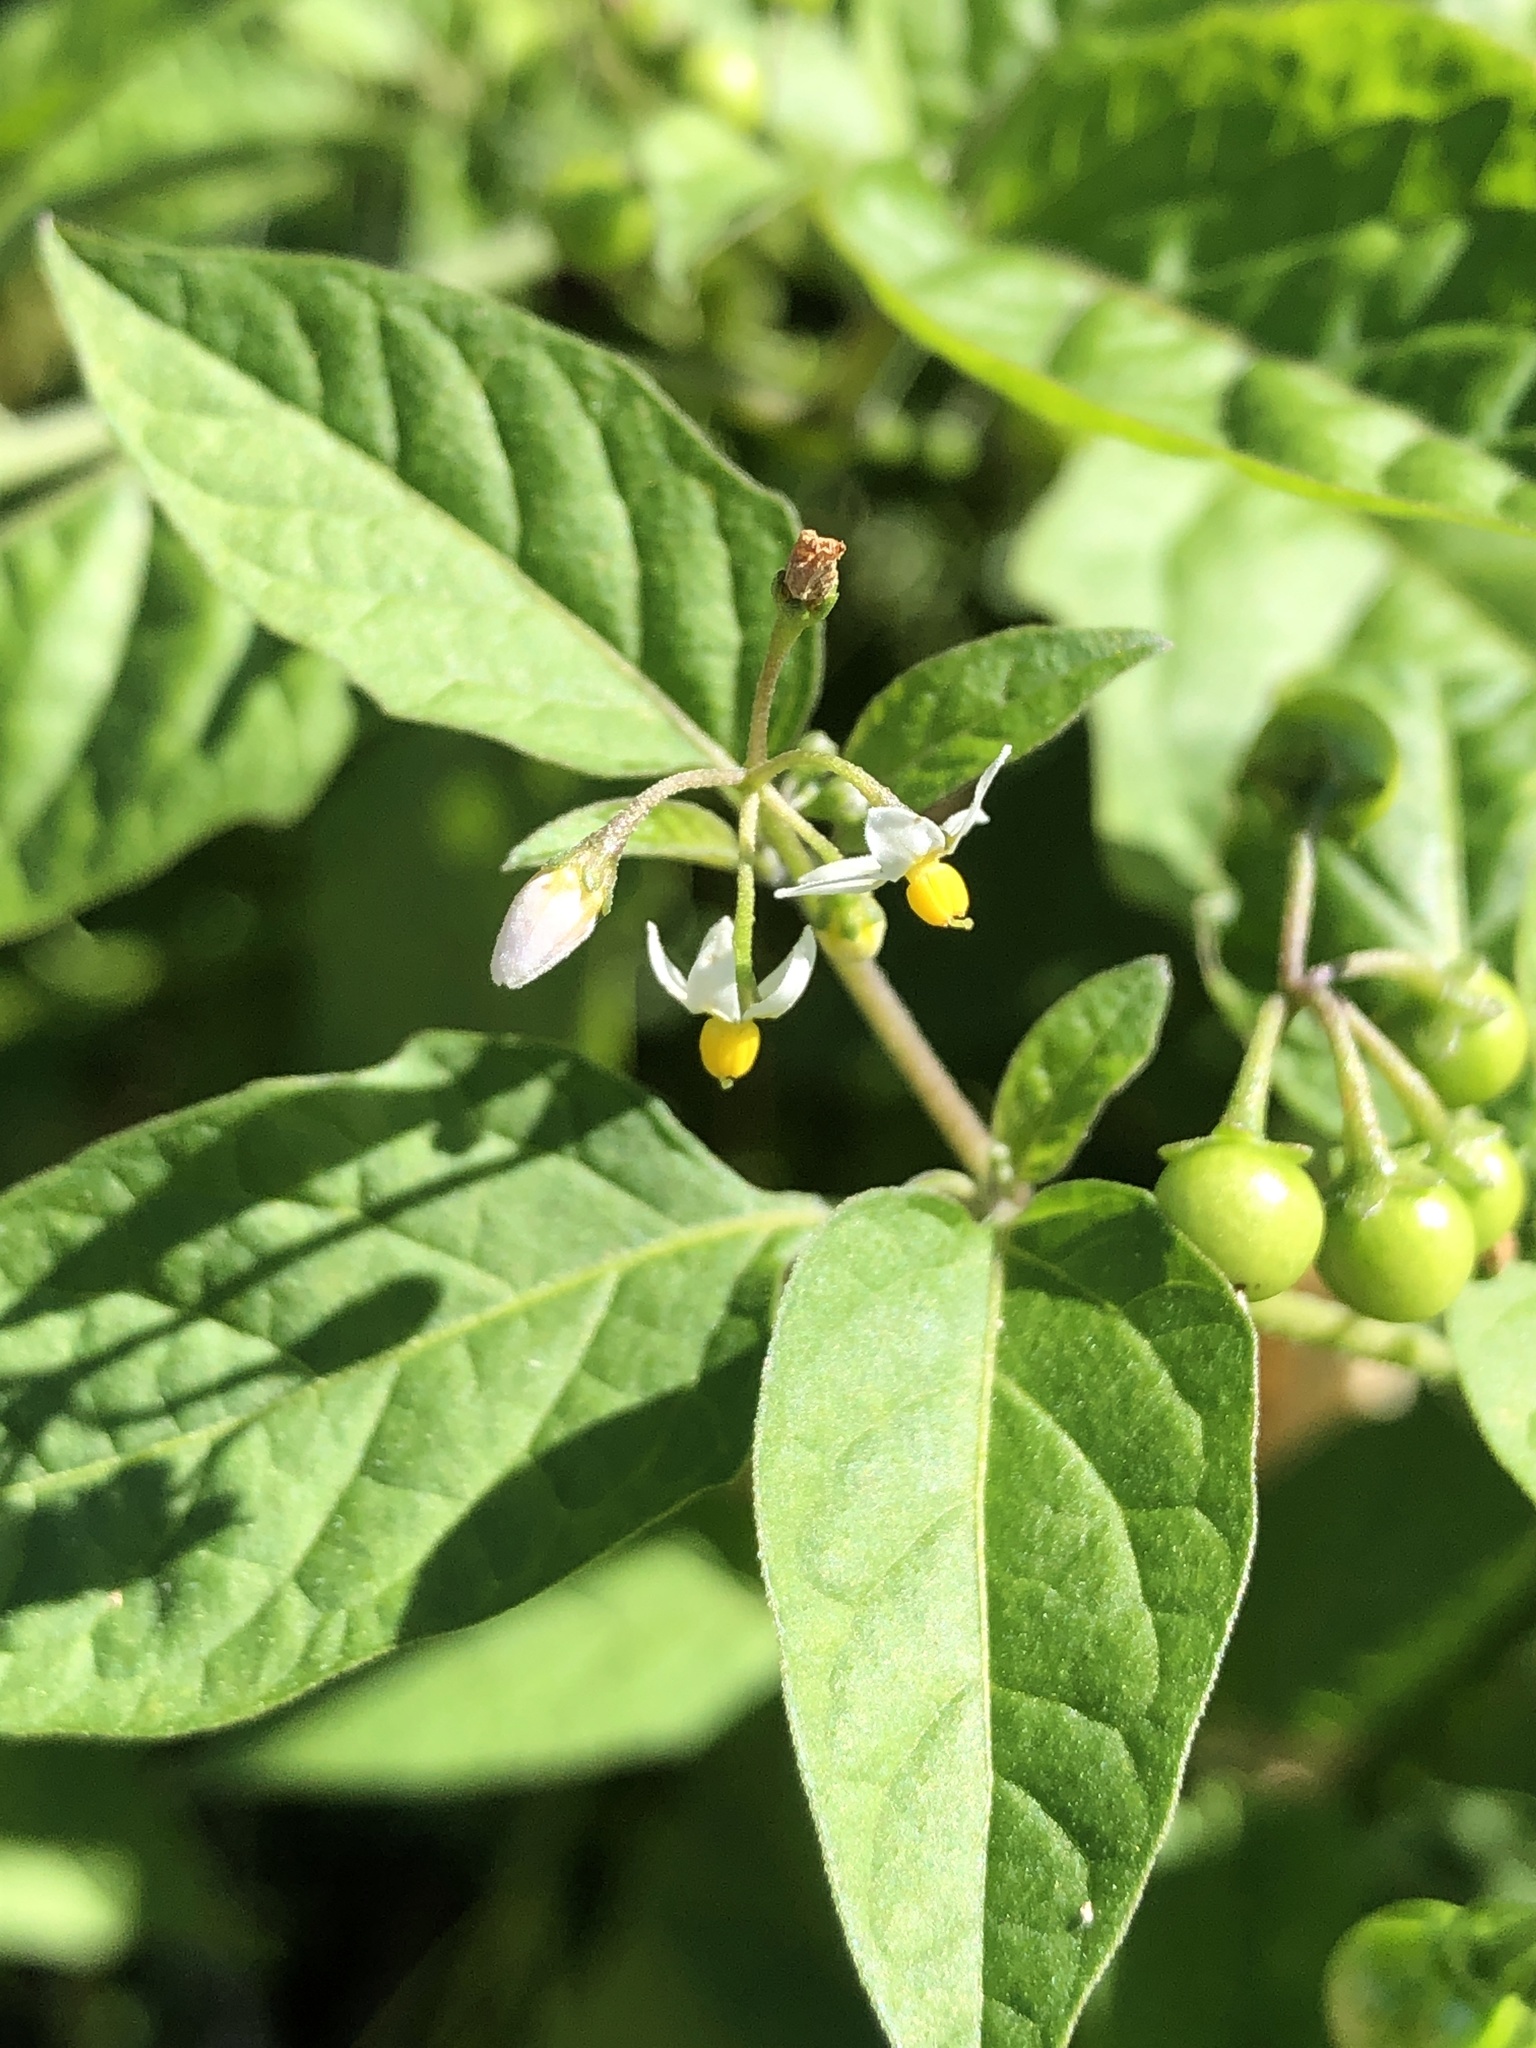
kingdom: Plantae
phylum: Tracheophyta
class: Magnoliopsida
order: Solanales
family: Solanaceae
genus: Solanum
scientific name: Solanum americanum
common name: American black nightshade
